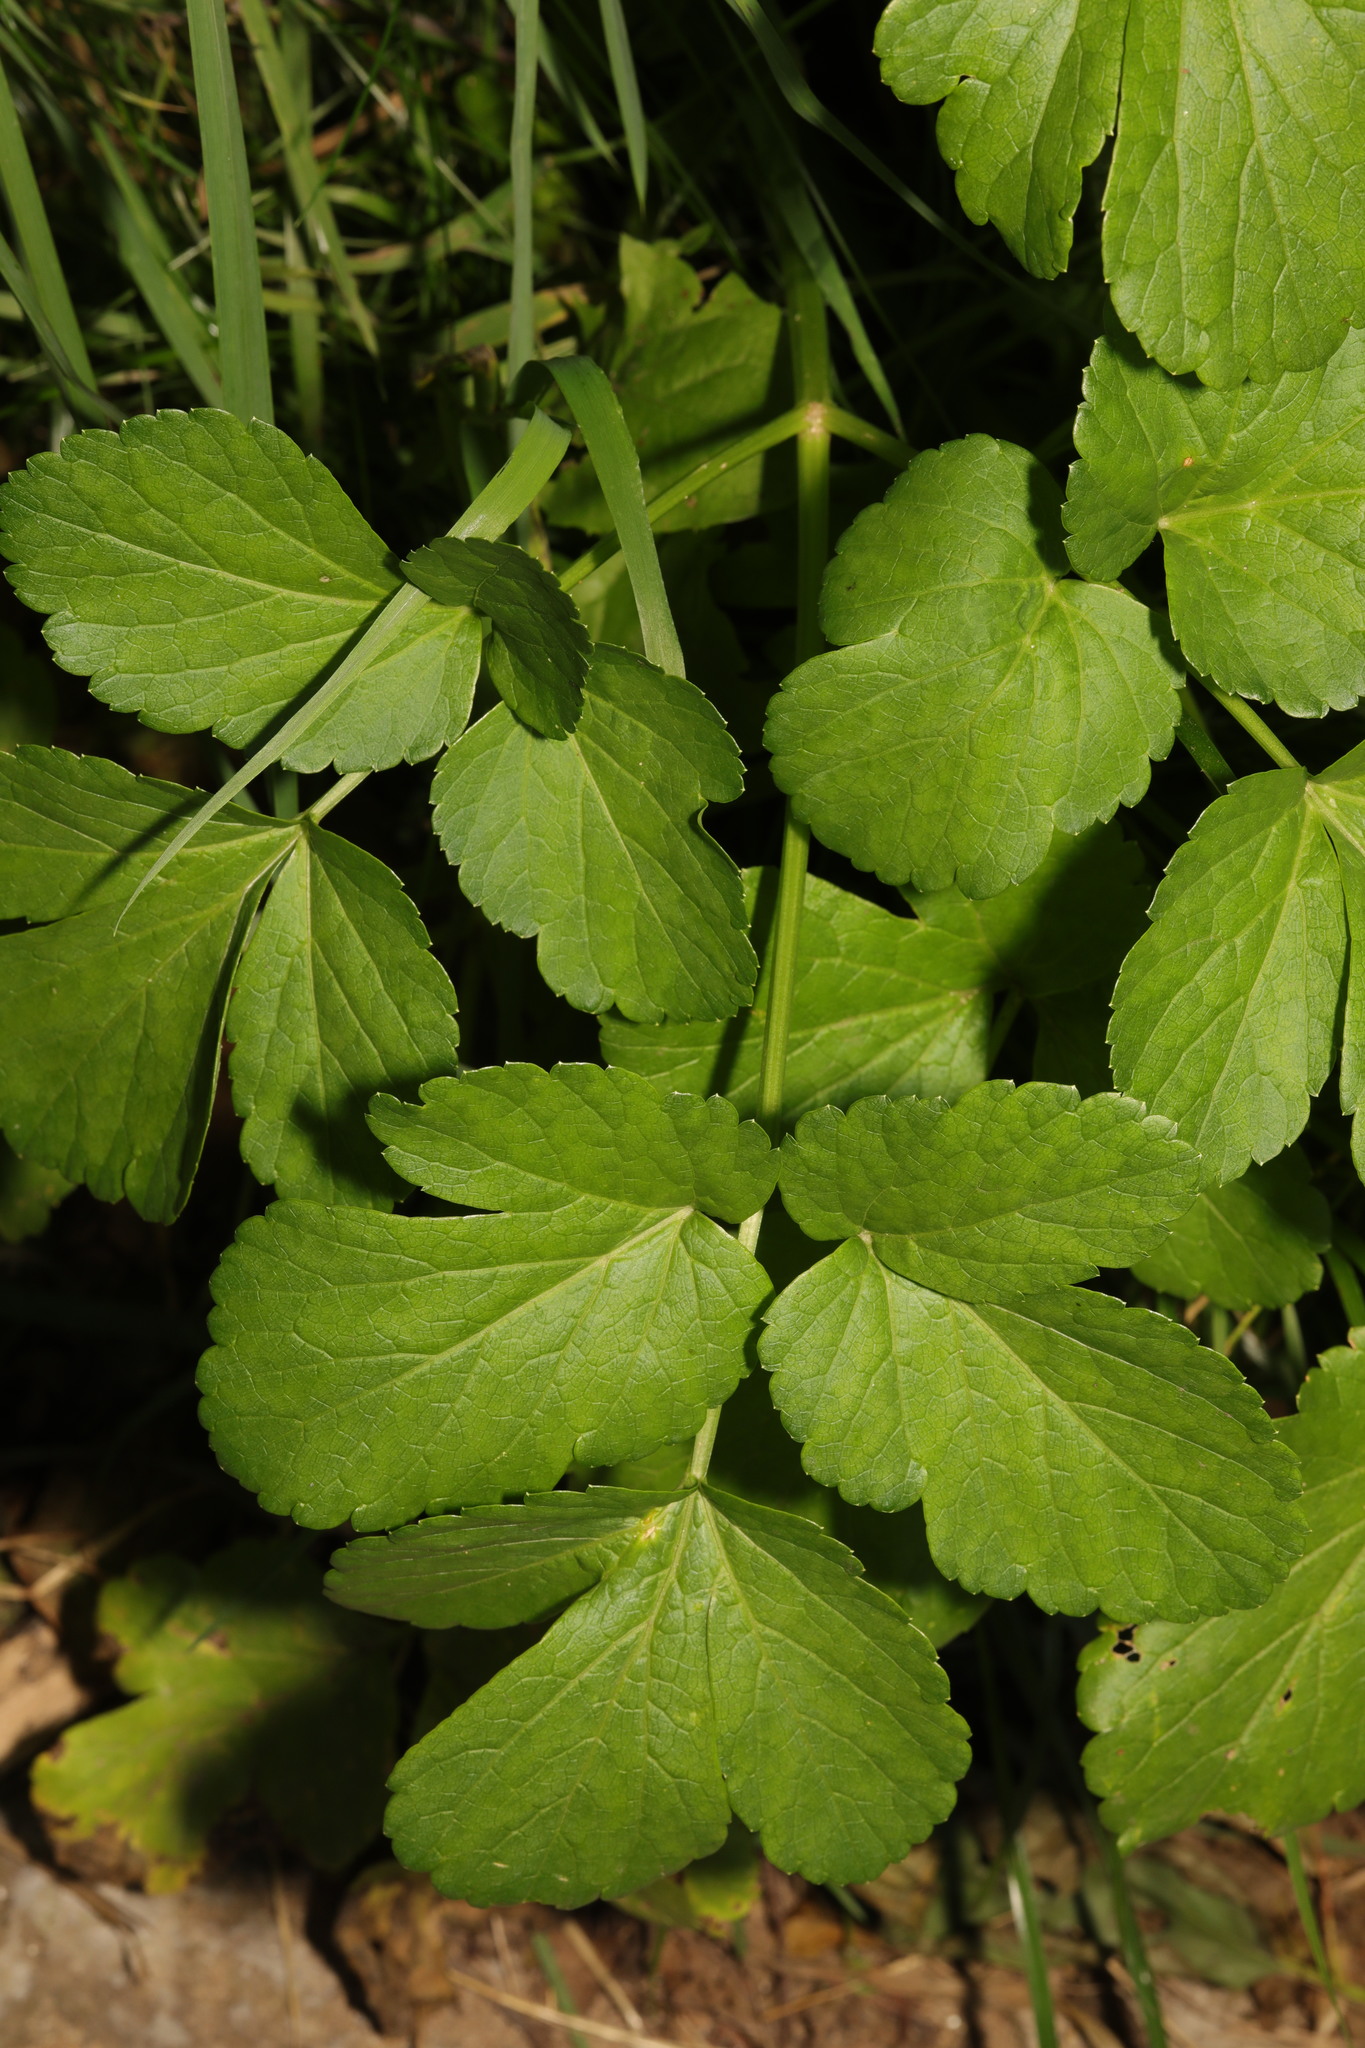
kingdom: Plantae
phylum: Tracheophyta
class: Magnoliopsida
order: Apiales
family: Apiaceae
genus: Smyrnium
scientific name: Smyrnium olusatrum
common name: Alexanders
